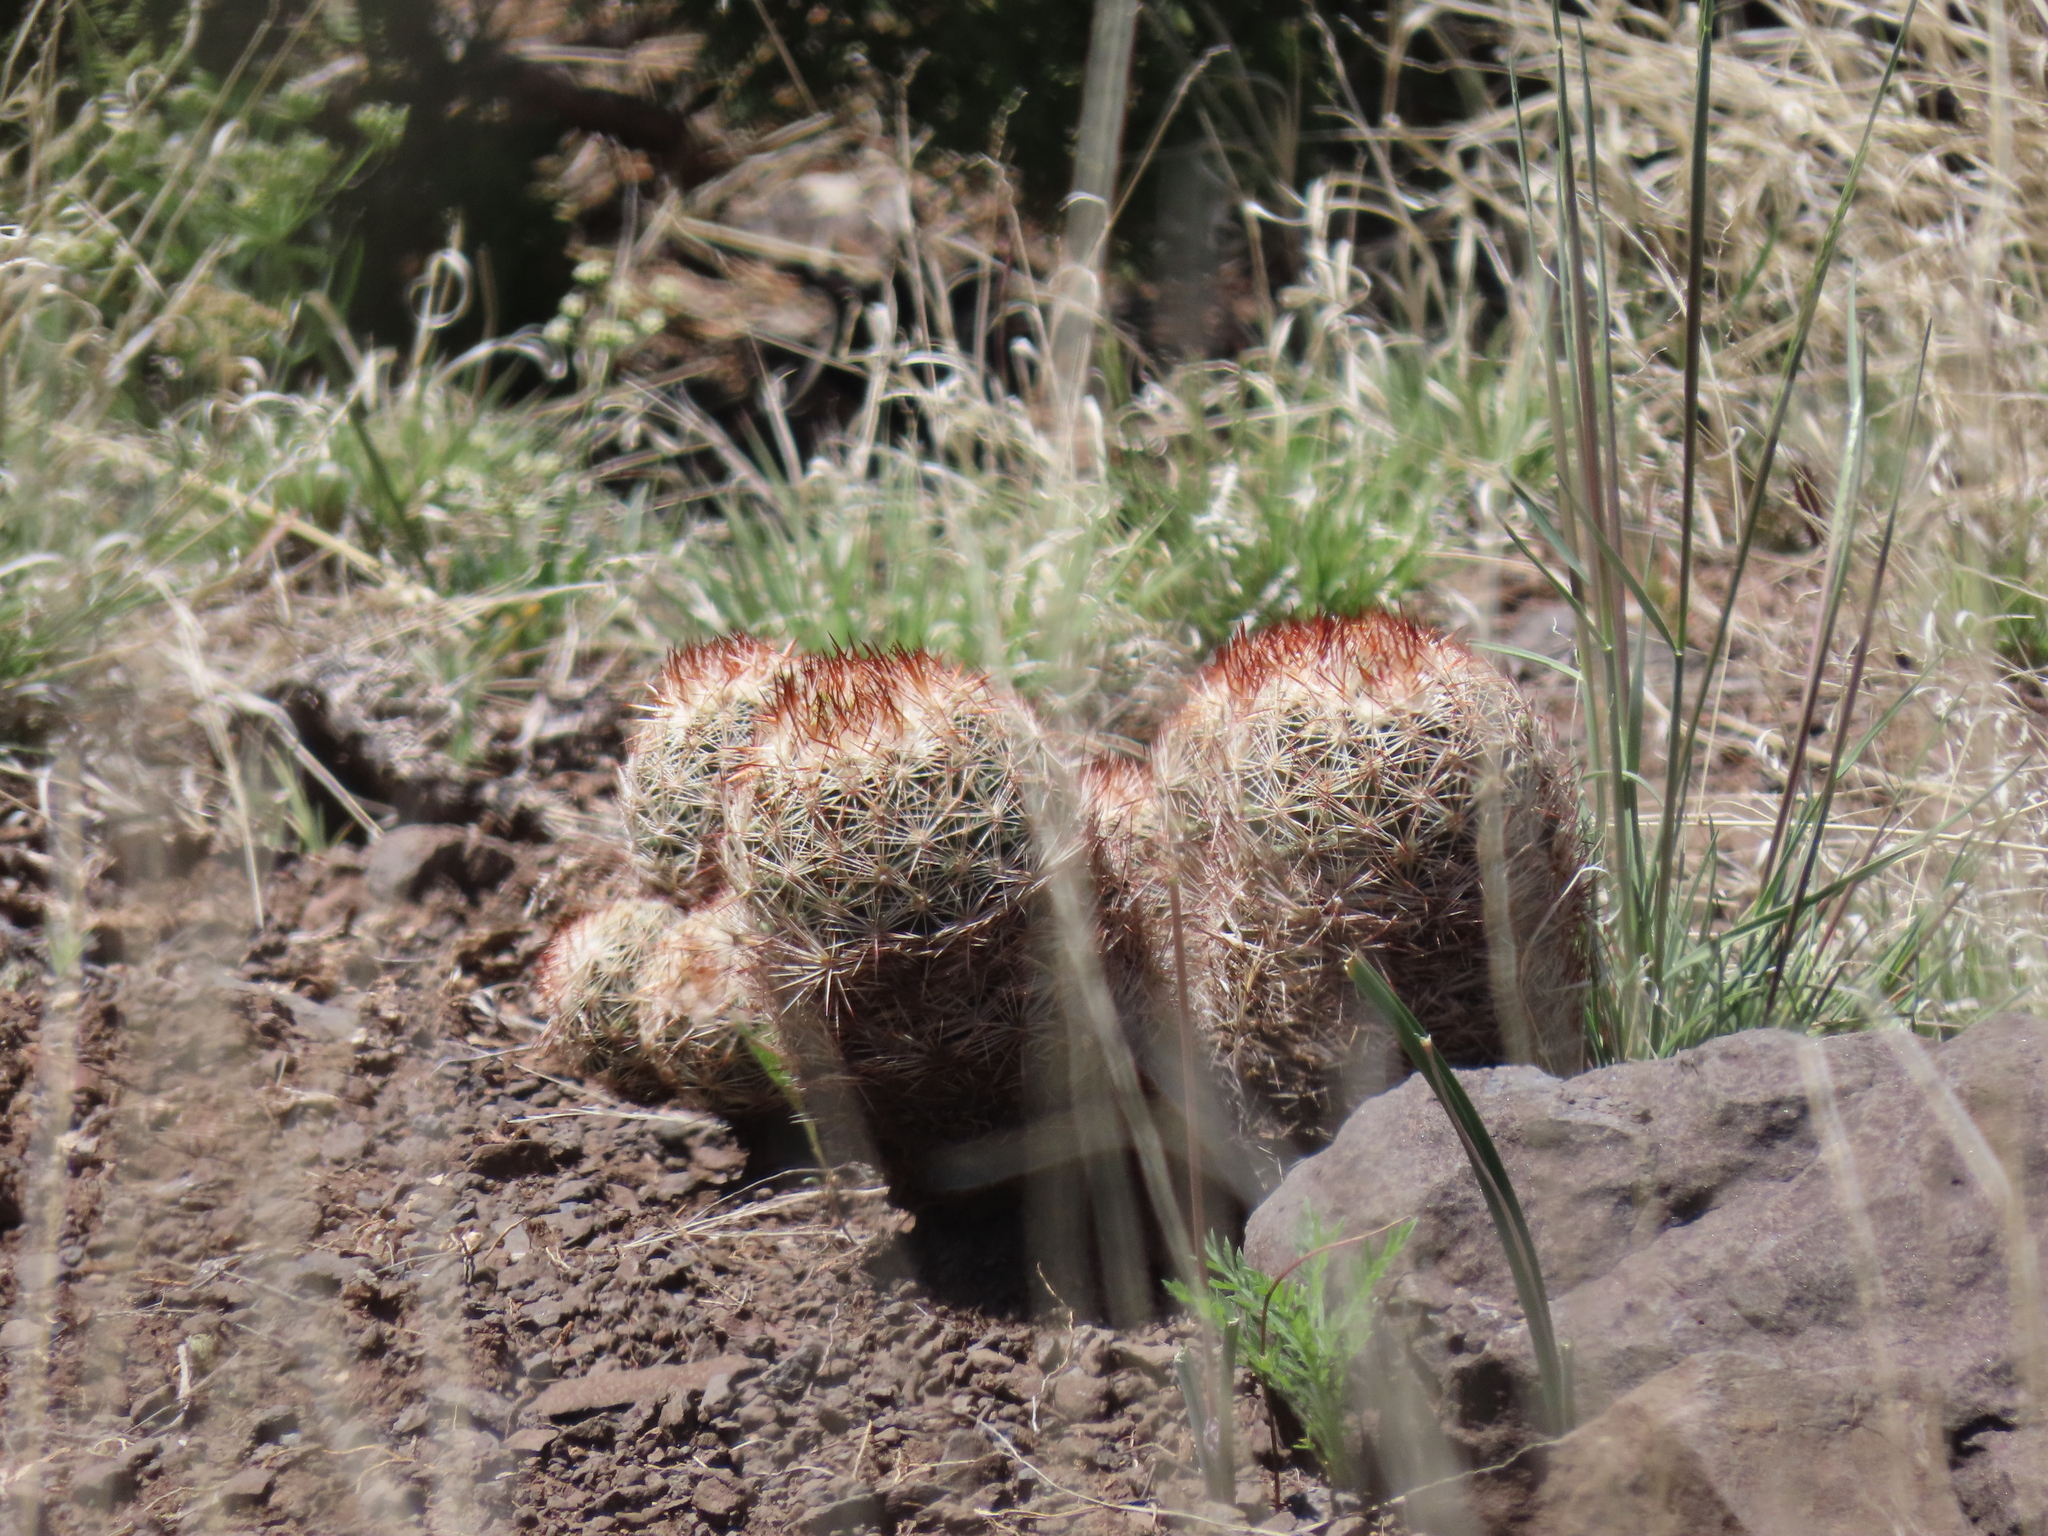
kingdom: Plantae
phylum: Tracheophyta
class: Magnoliopsida
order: Caryophyllales
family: Cactaceae
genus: Pelecyphora
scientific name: Pelecyphora vivipara
